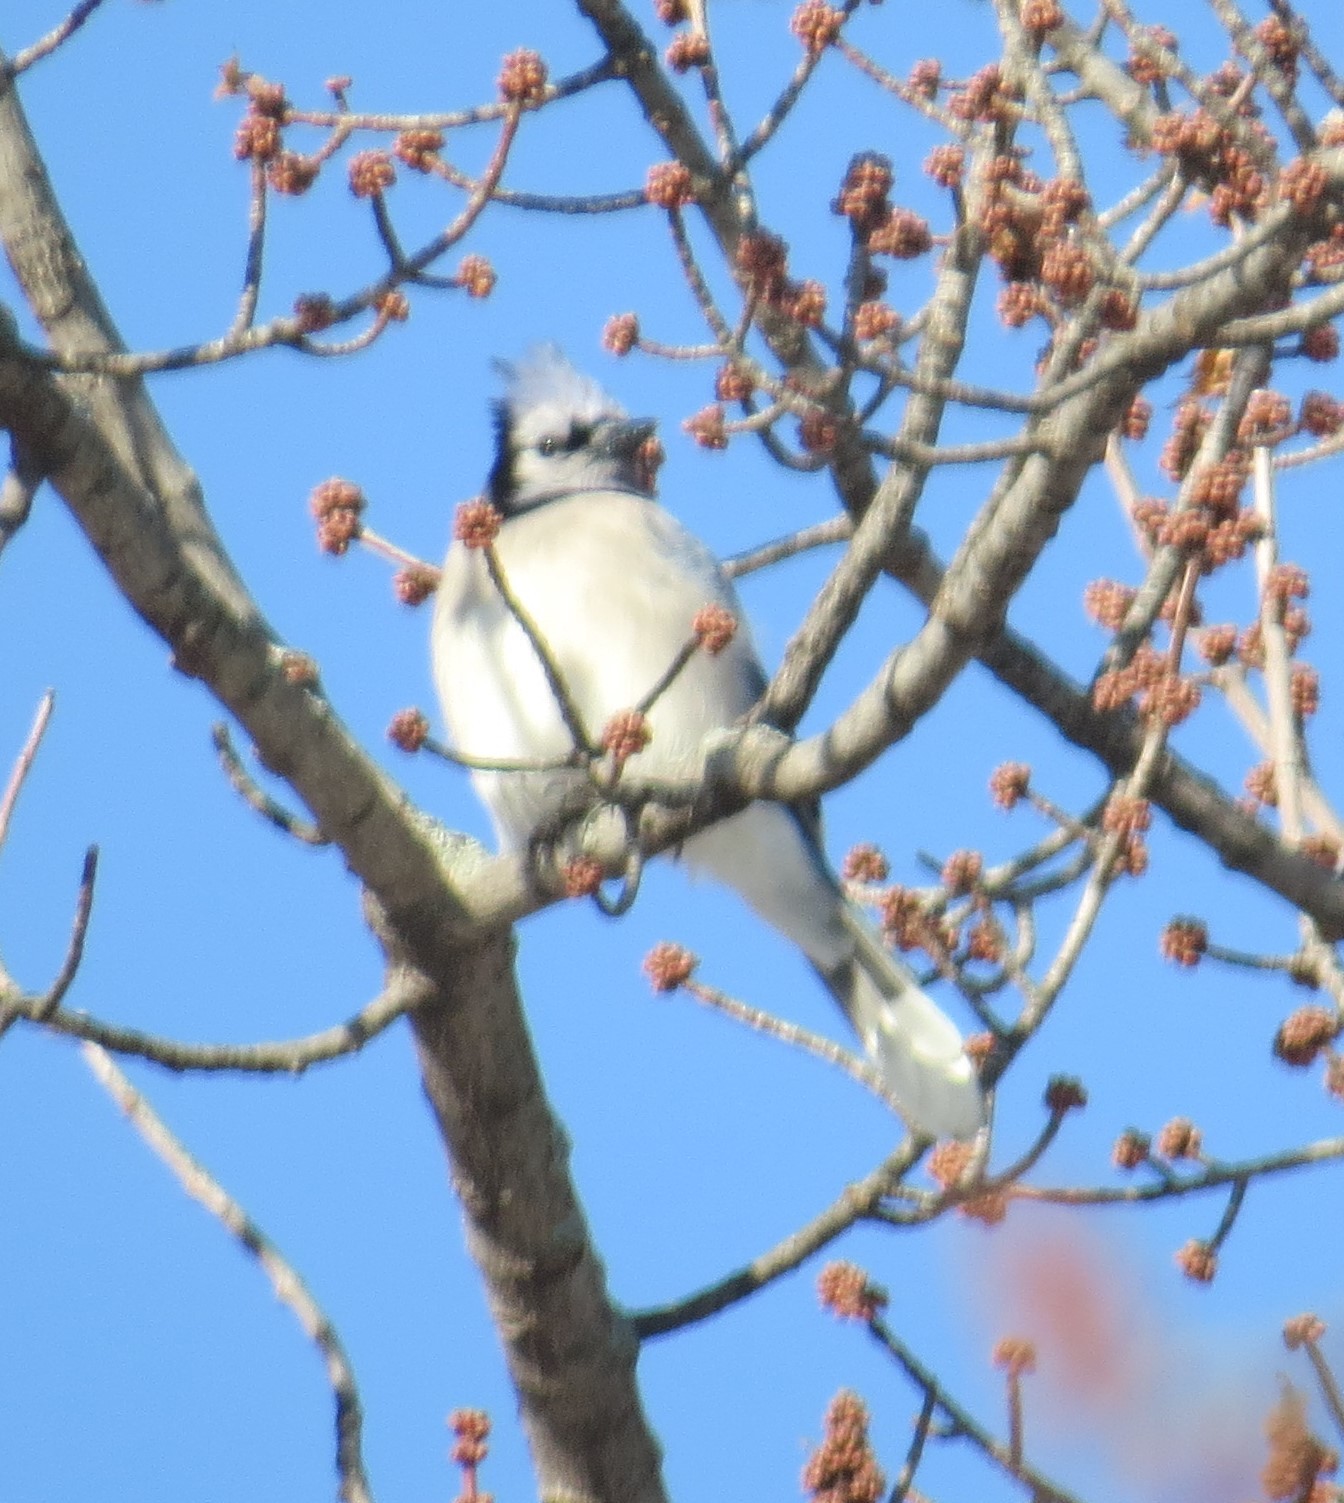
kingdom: Animalia
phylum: Chordata
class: Aves
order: Passeriformes
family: Corvidae
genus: Cyanocitta
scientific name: Cyanocitta cristata
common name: Blue jay
